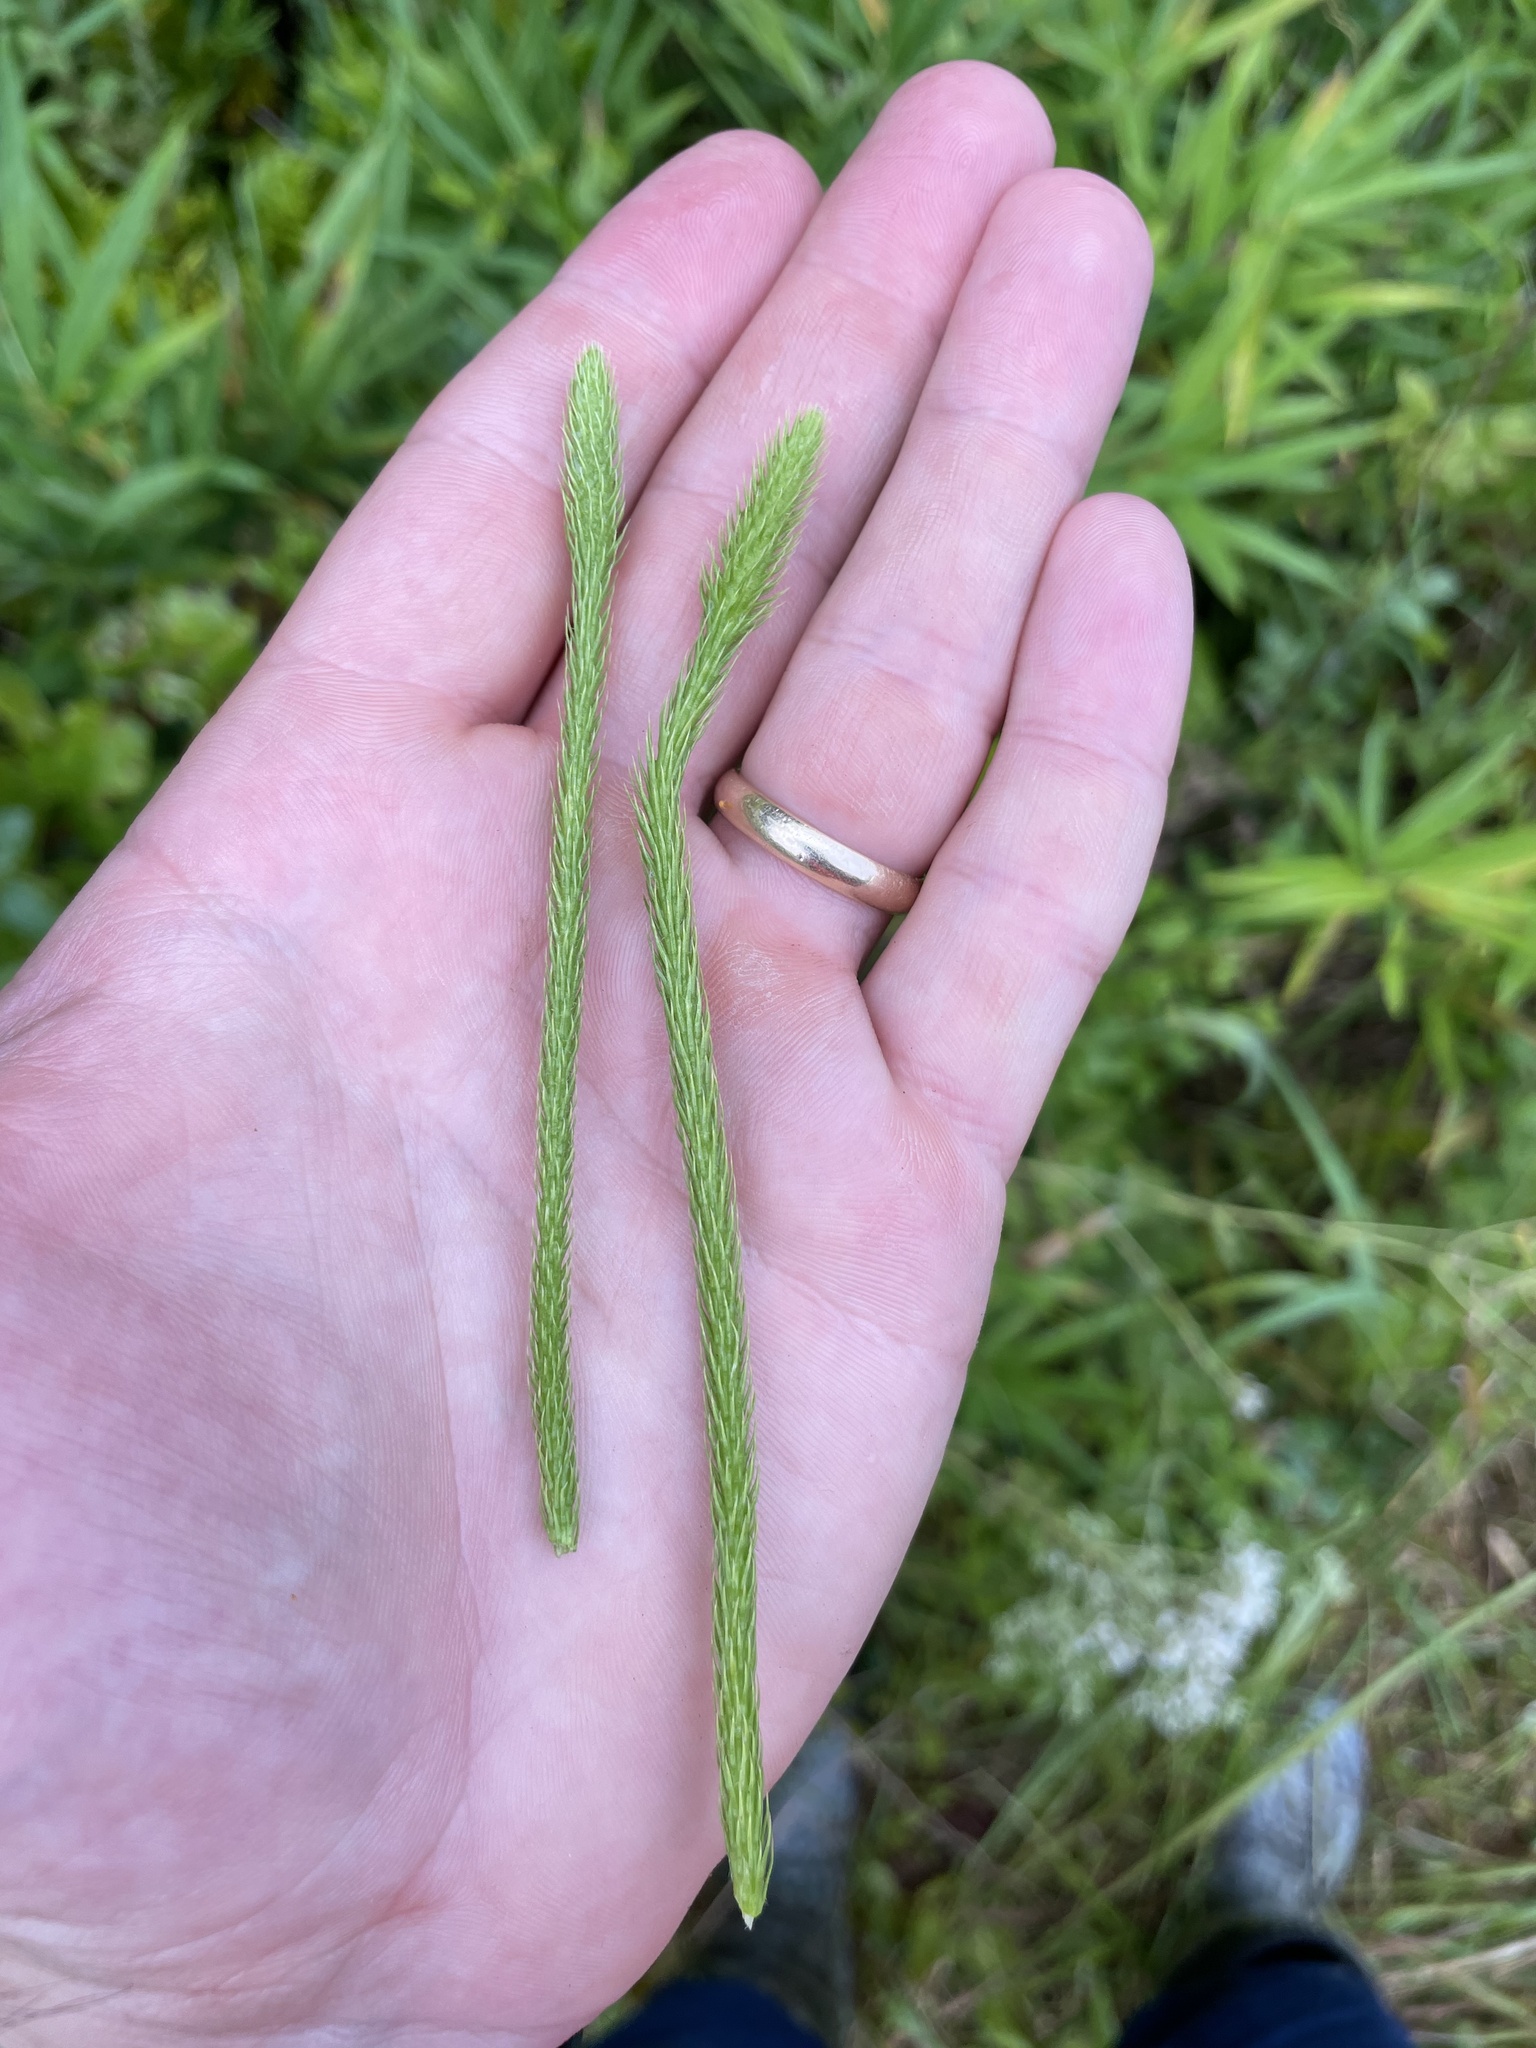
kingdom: Plantae
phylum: Tracheophyta
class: Lycopodiopsida
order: Lycopodiales
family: Lycopodiaceae
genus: Lycopodiella
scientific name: Lycopodiella appressa
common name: Appressed bog clubmoss
